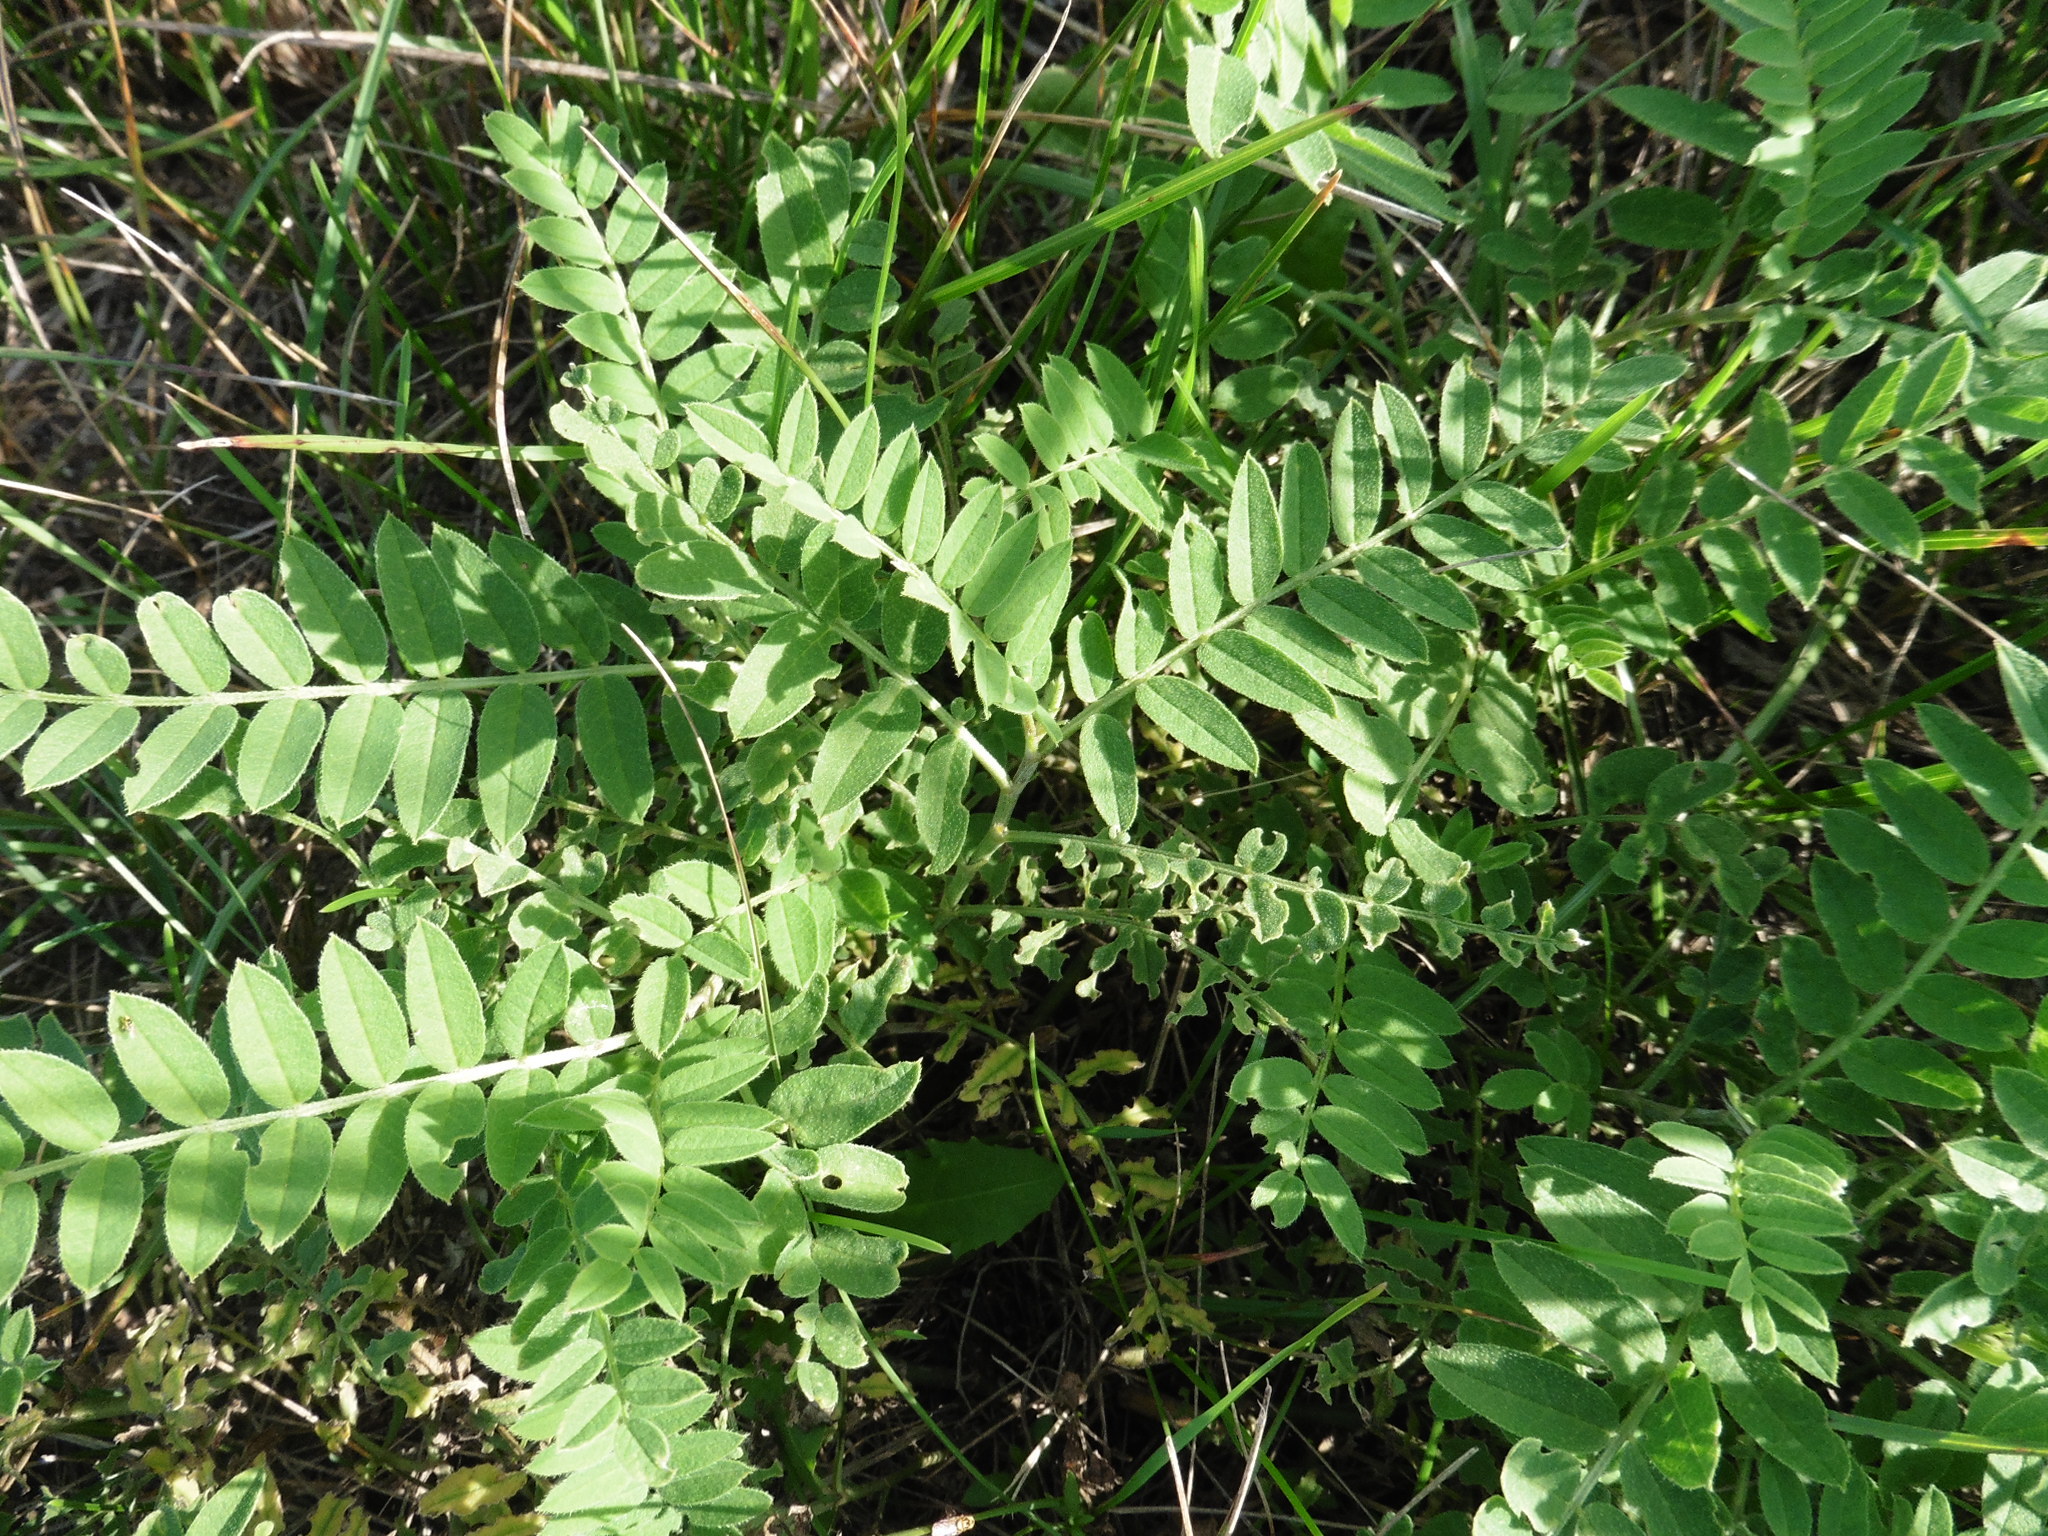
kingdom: Plantae
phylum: Tracheophyta
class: Magnoliopsida
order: Fabales
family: Fabaceae
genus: Astragalus
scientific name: Astragalus cicer
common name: Chick-pea milk-vetch
